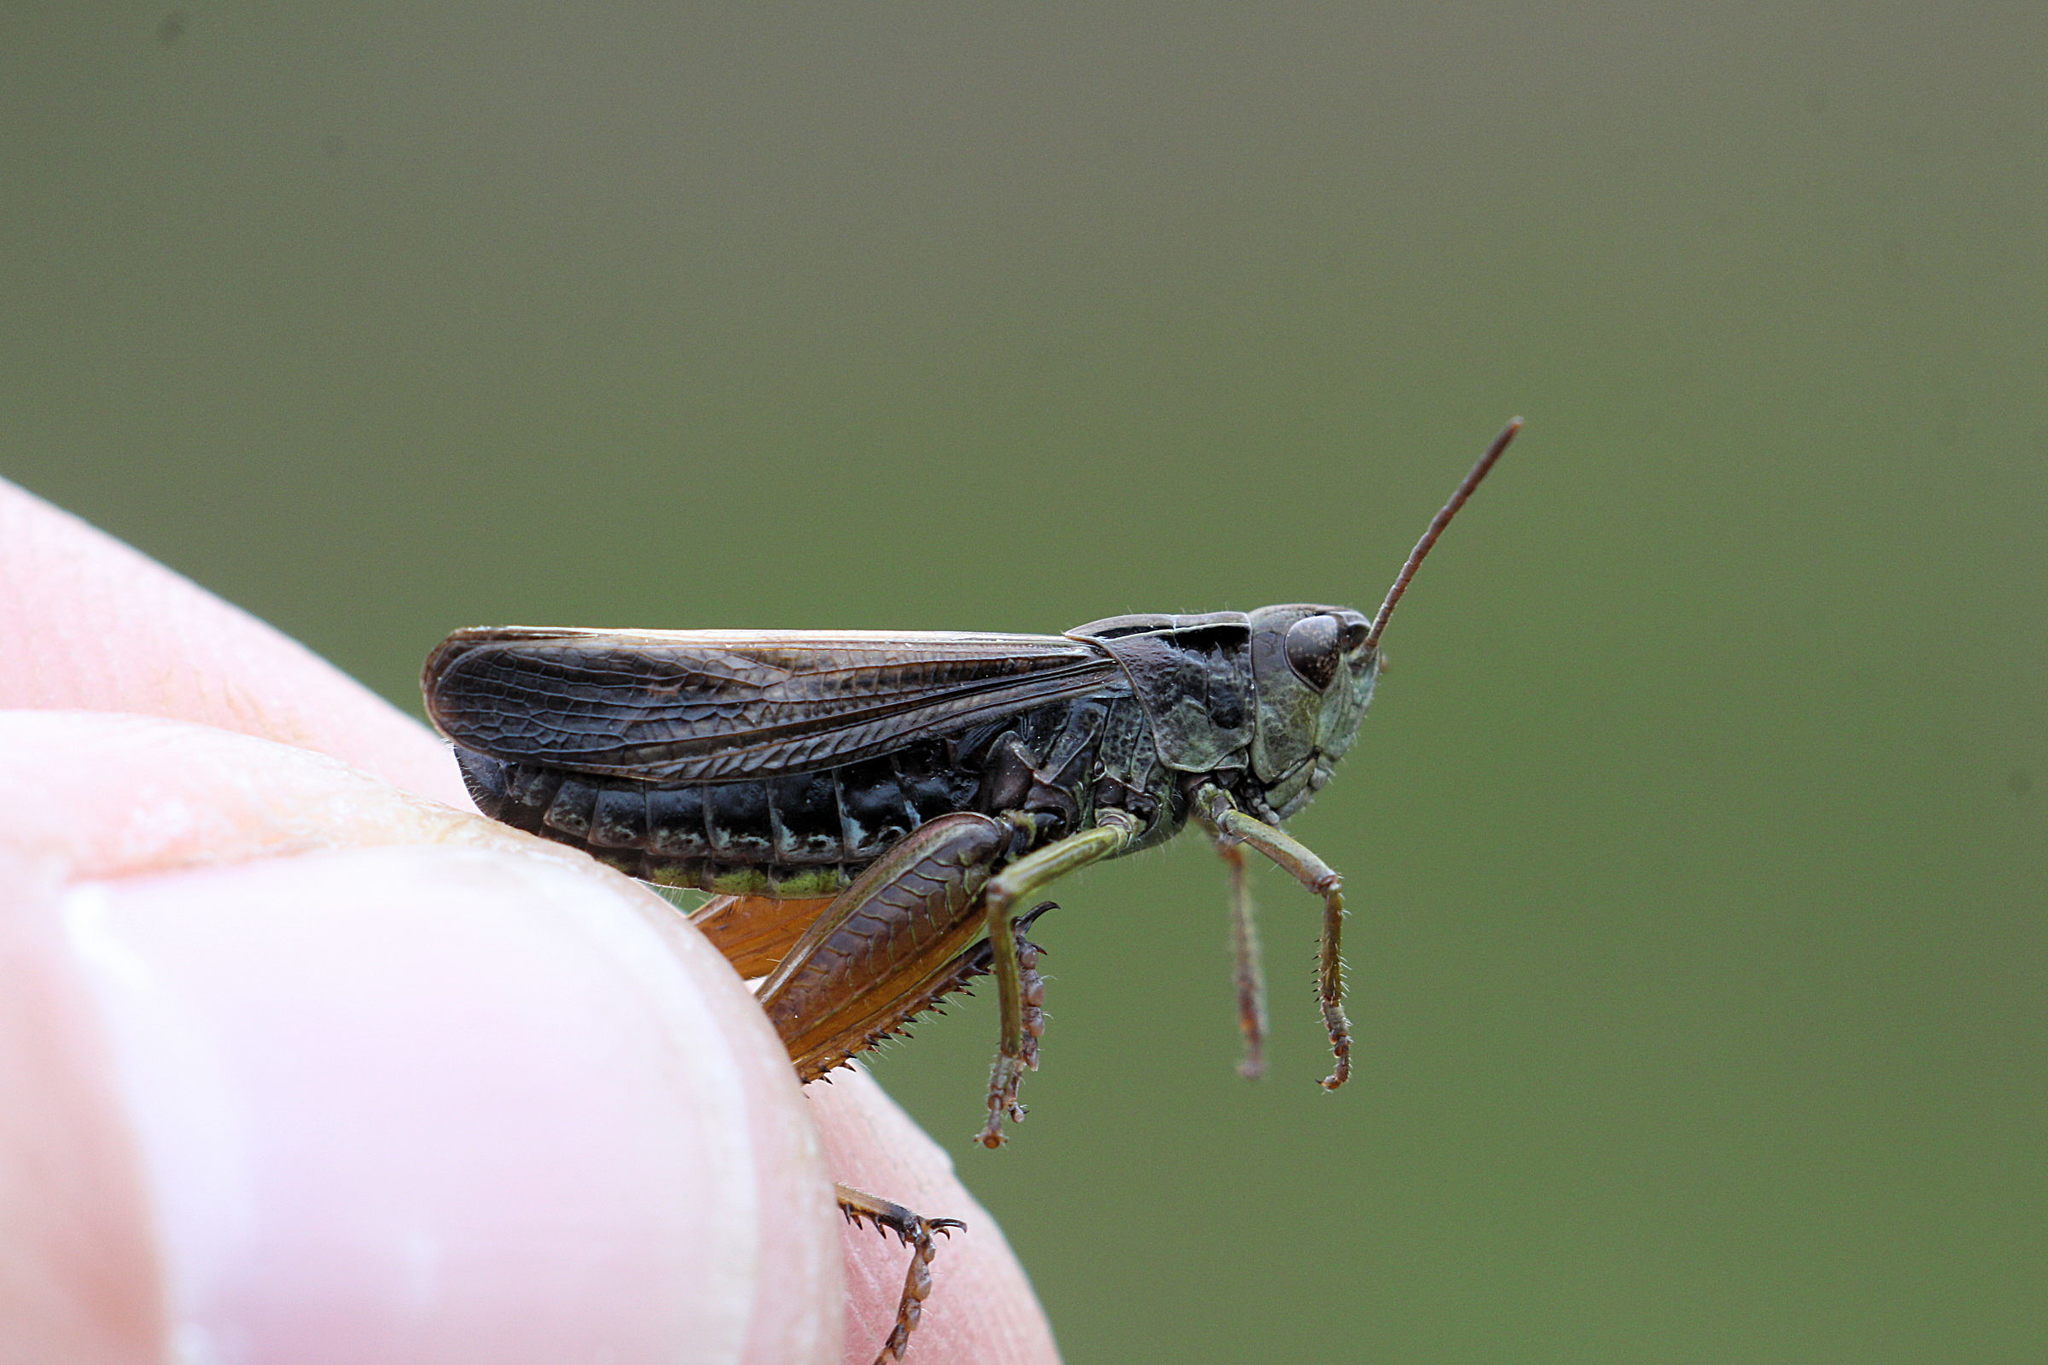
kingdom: Animalia
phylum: Arthropoda
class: Insecta
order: Orthoptera
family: Acrididae
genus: Omocestus
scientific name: Omocestus viridulus
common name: Common green grasshopper
